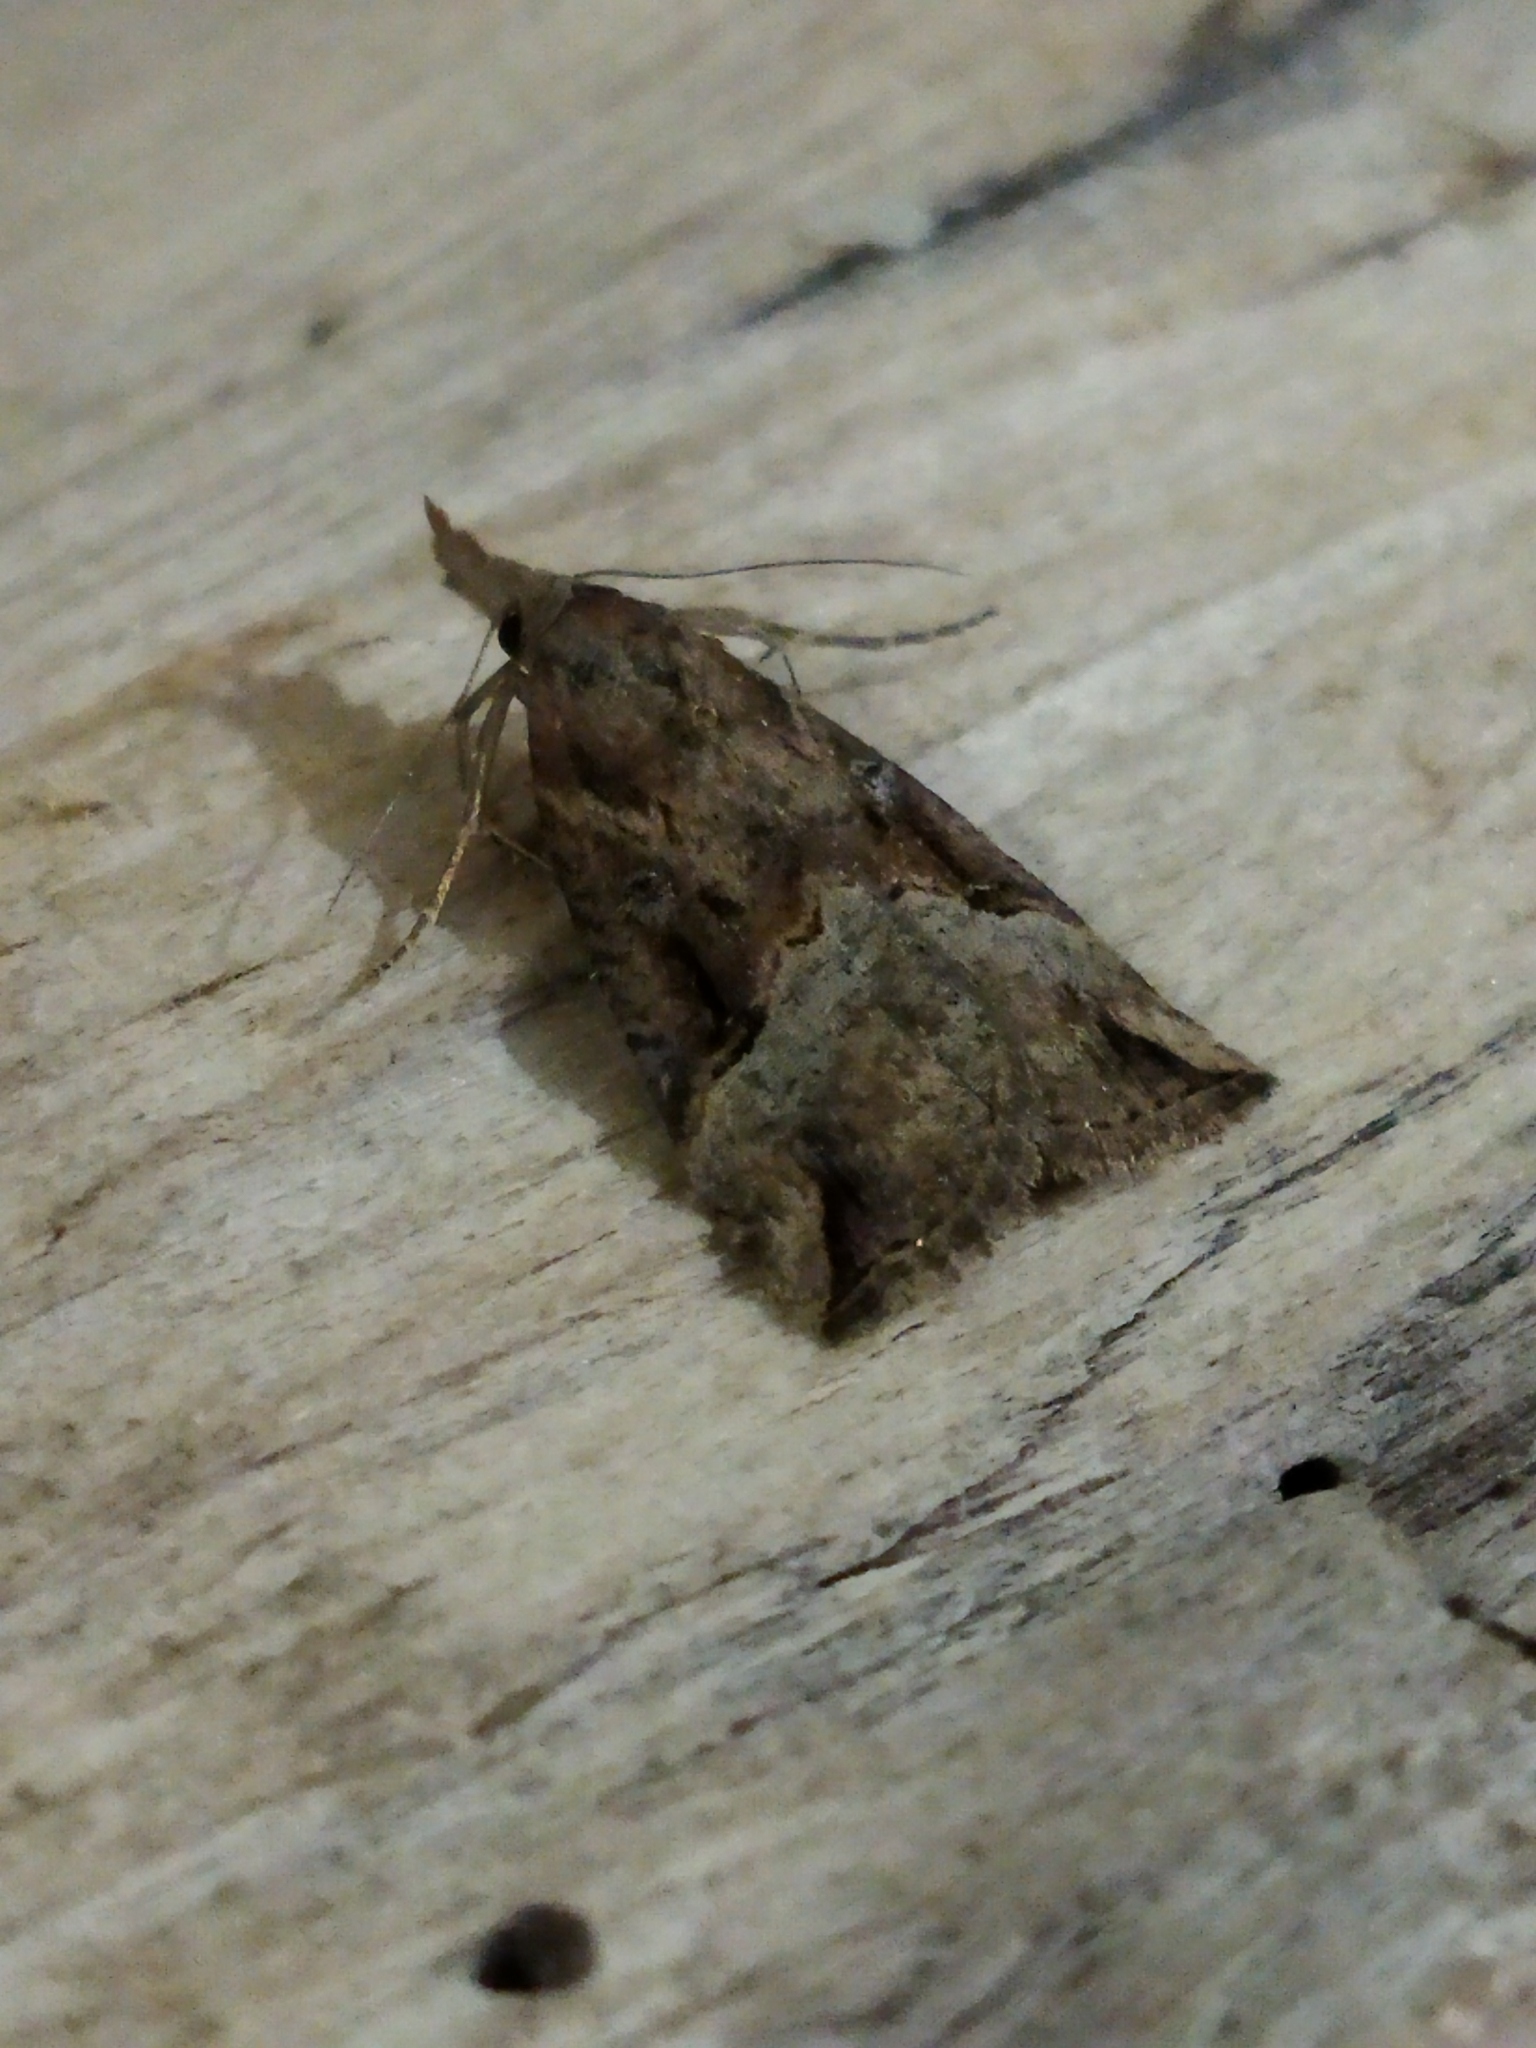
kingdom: Animalia
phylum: Arthropoda
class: Insecta
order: Lepidoptera
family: Erebidae
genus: Hypena
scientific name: Hypena rostralis
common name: Buttoned snout
